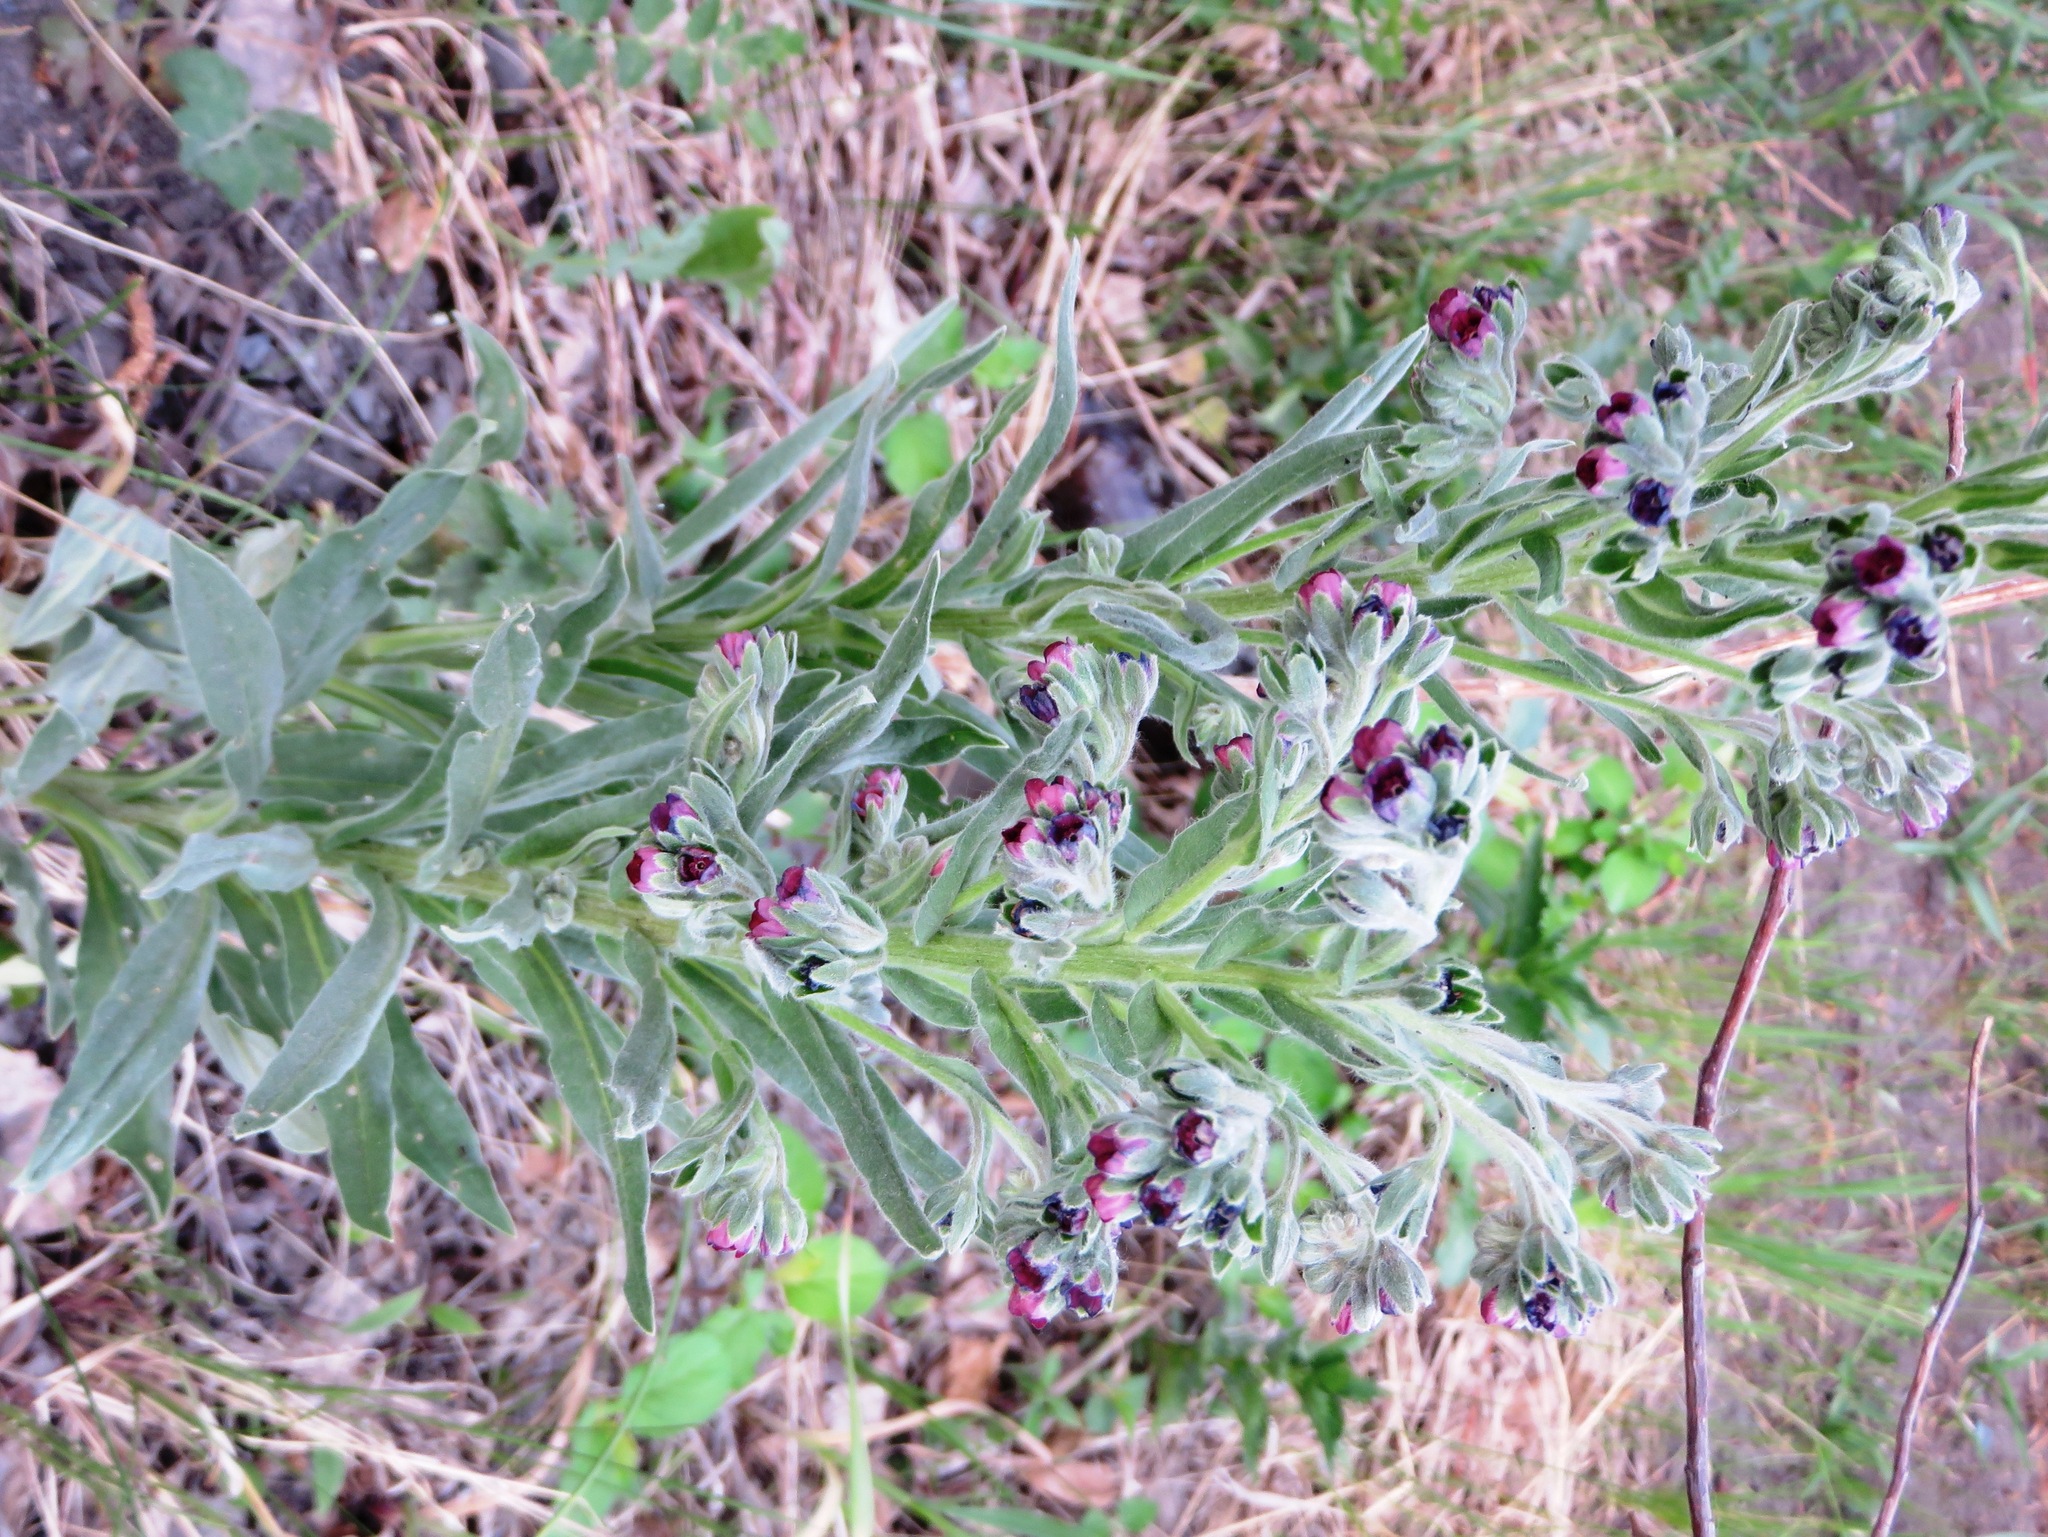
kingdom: Plantae
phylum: Tracheophyta
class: Magnoliopsida
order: Boraginales
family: Boraginaceae
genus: Cynoglossum
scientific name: Cynoglossum officinale
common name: Hound's-tongue
